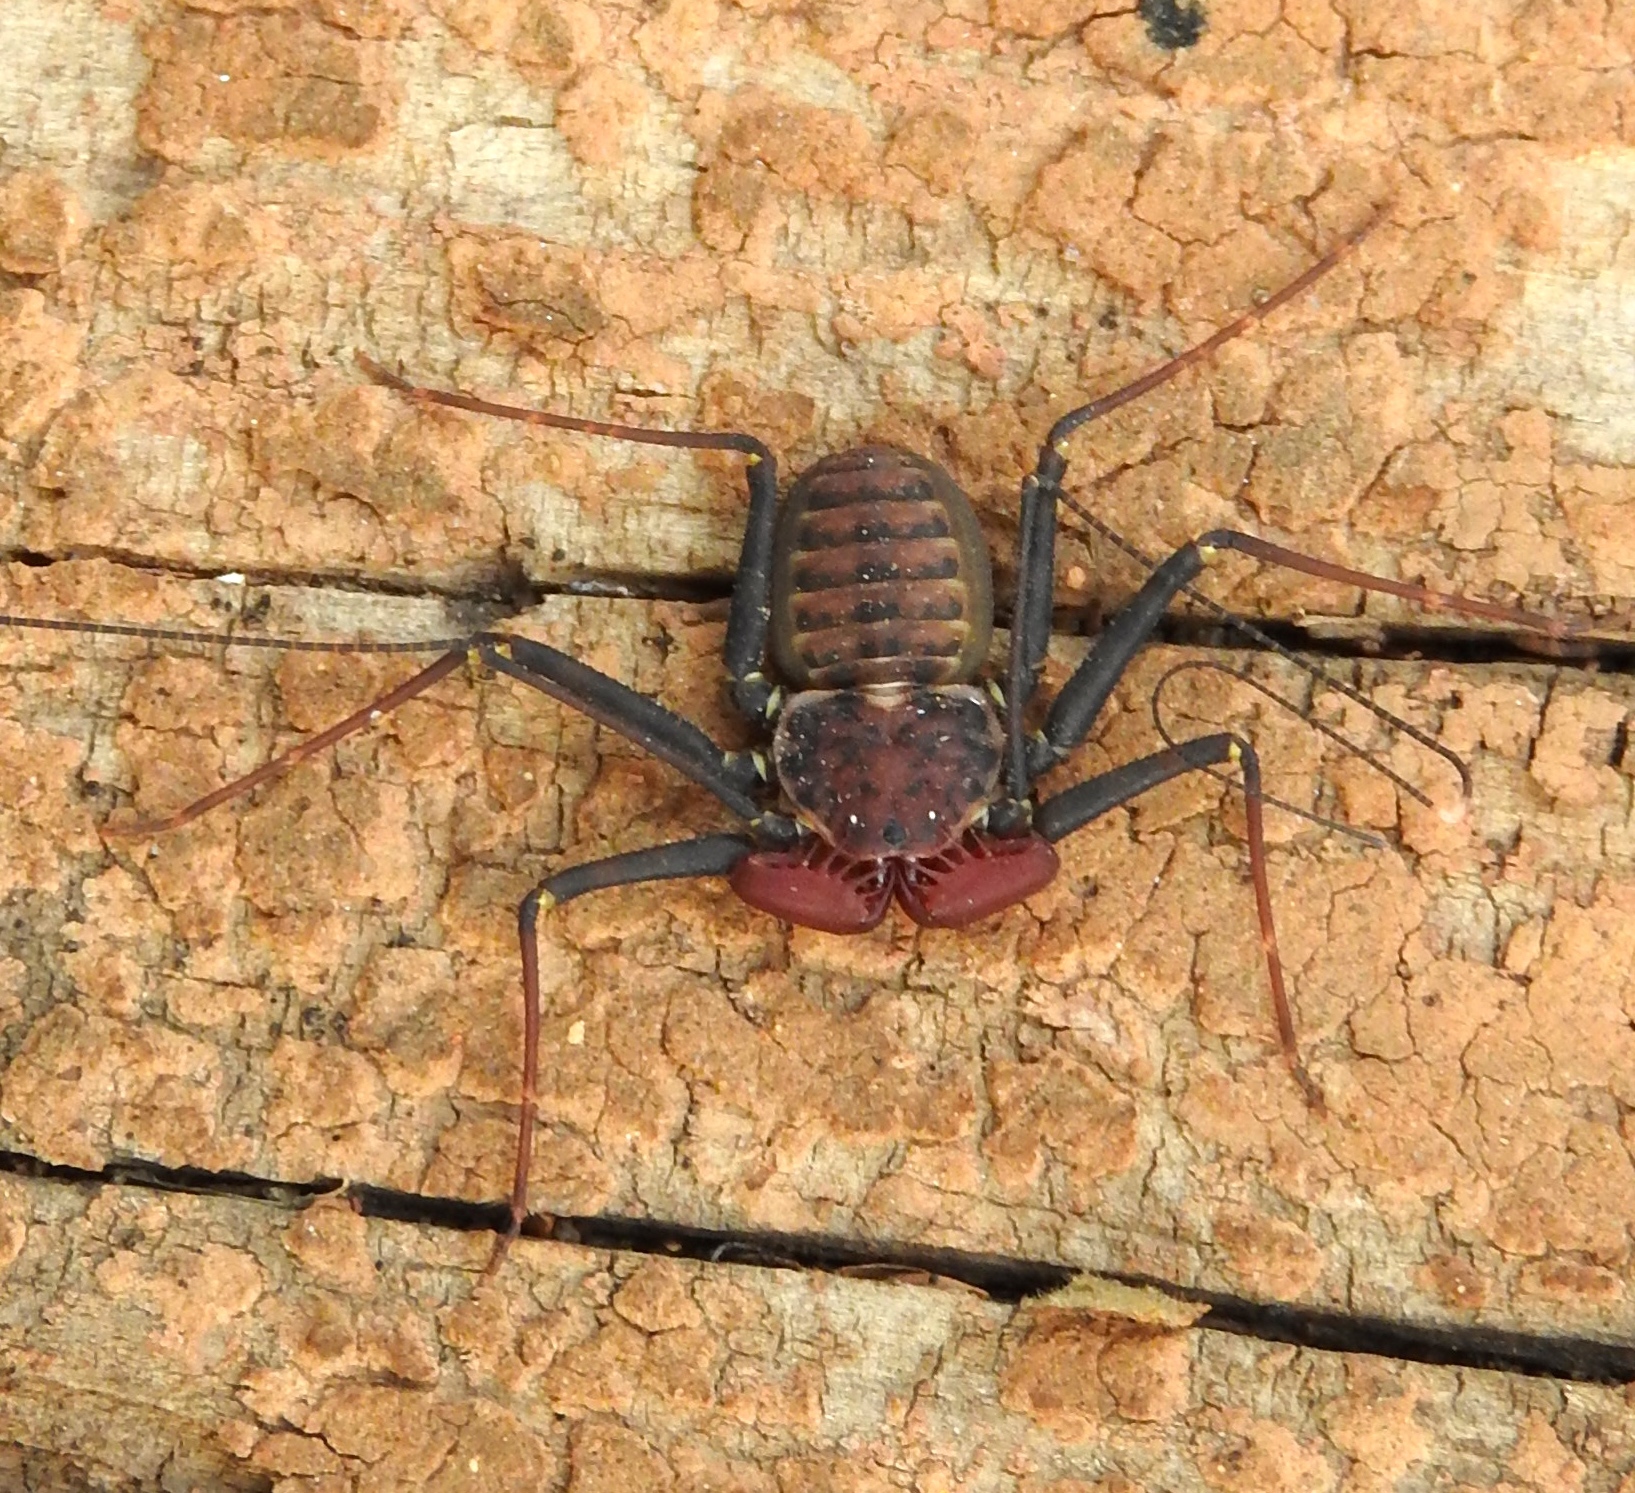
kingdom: Animalia
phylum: Arthropoda
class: Arachnida
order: Amblypygi
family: Phrynidae
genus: Phrynus
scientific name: Phrynus operculatus
